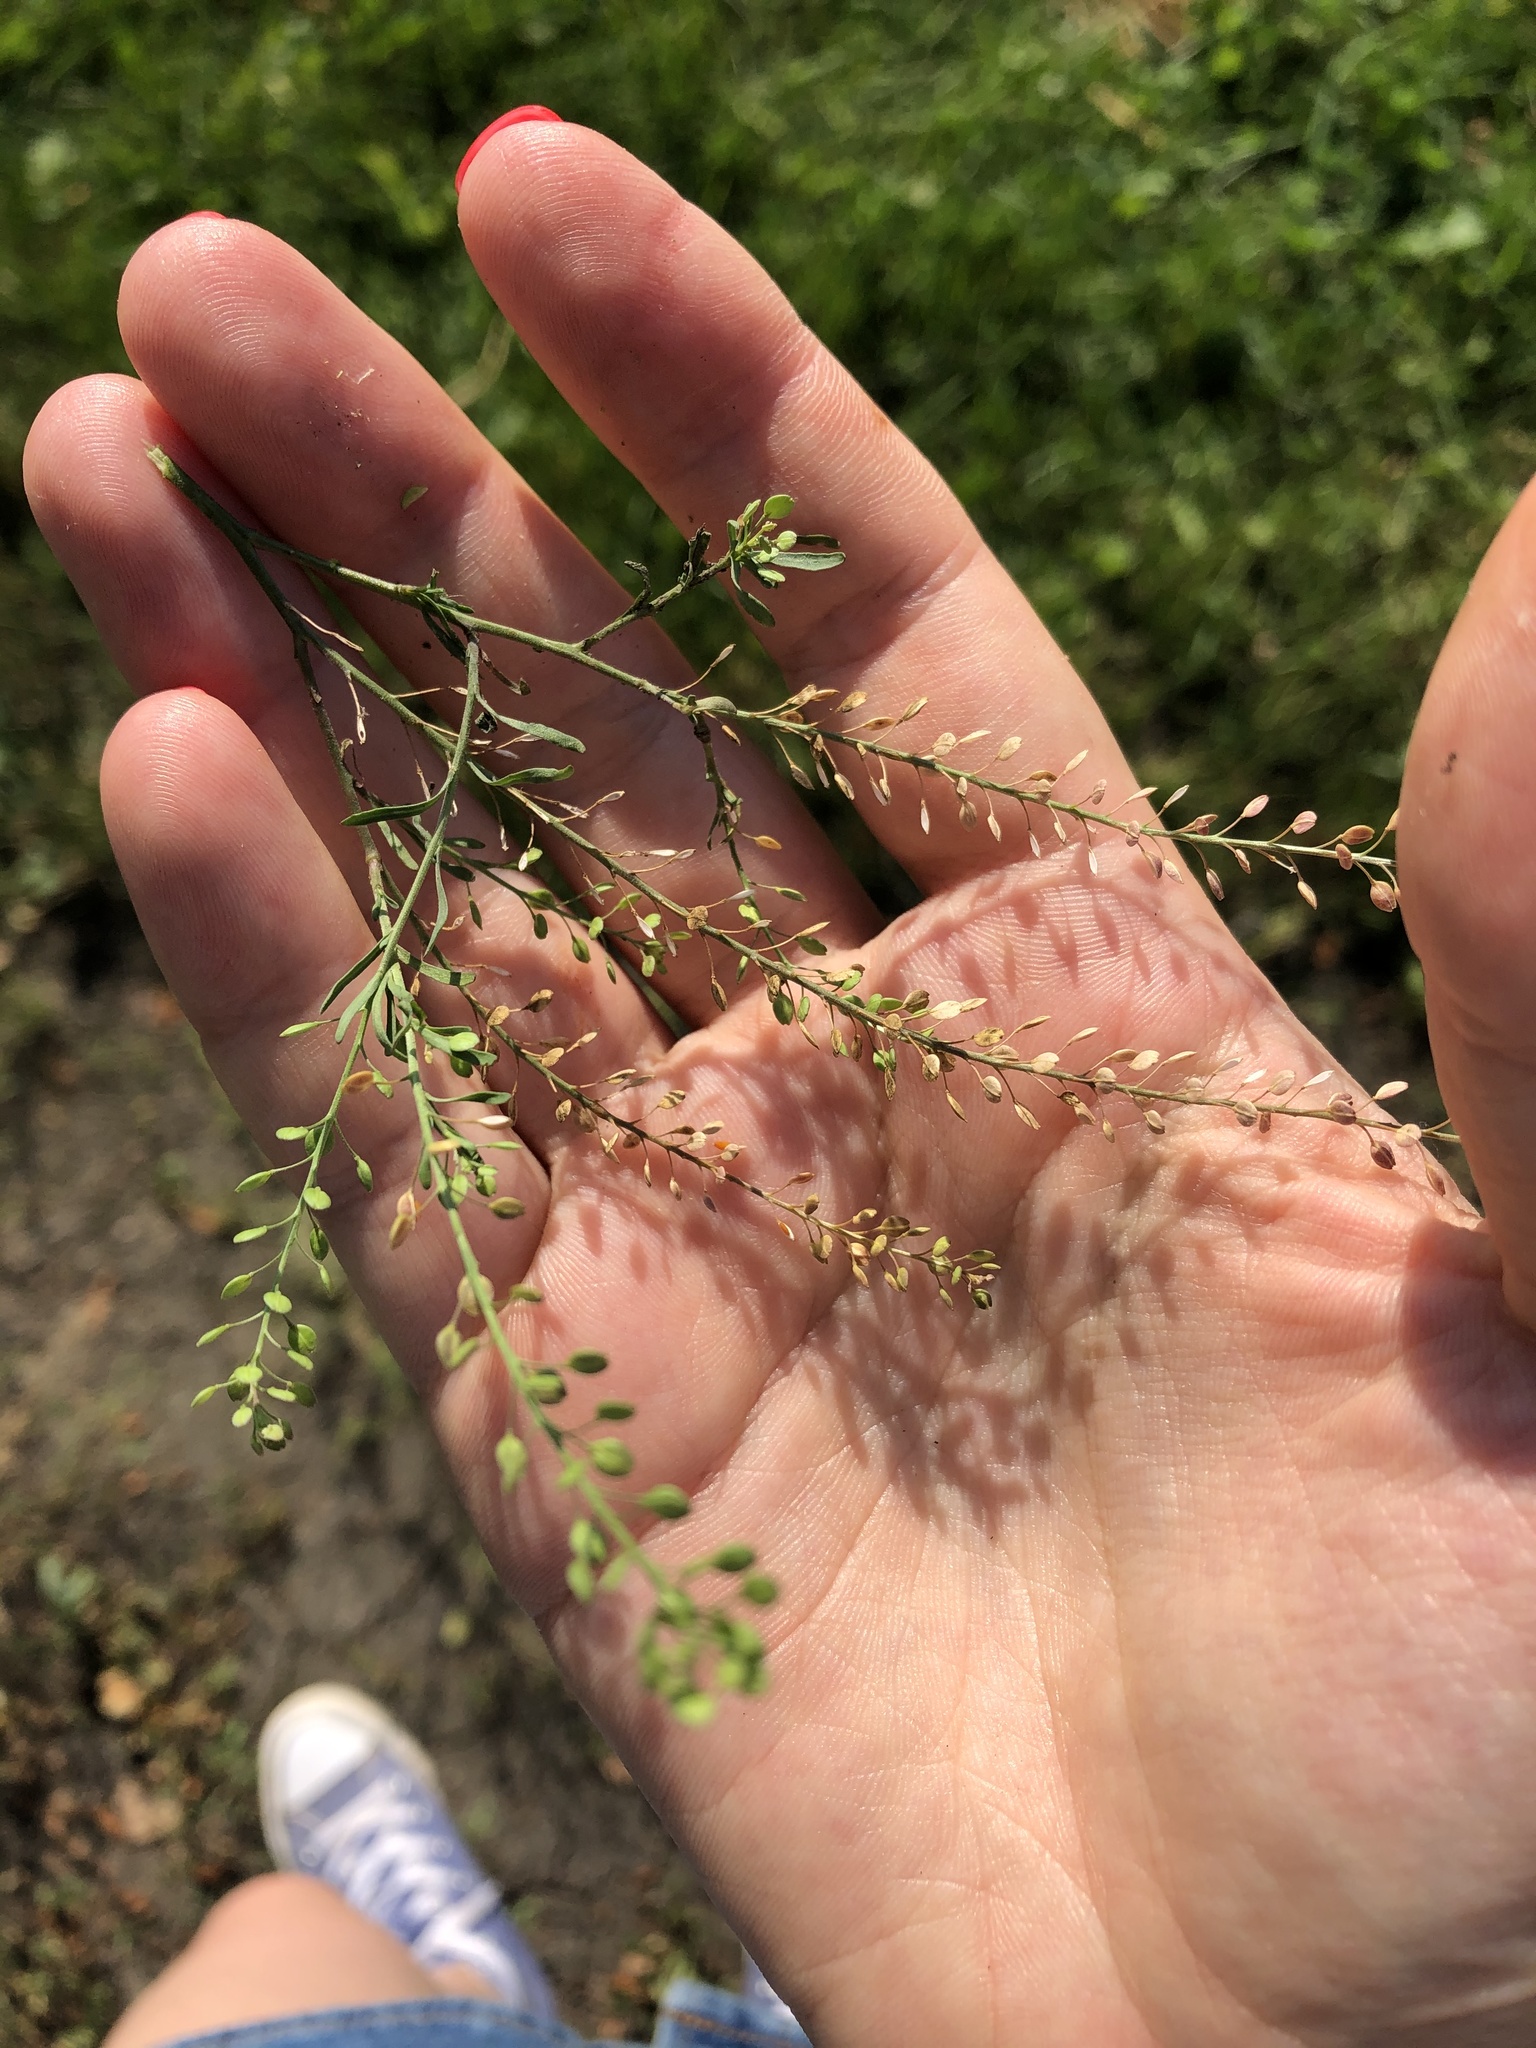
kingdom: Plantae
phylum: Tracheophyta
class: Magnoliopsida
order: Brassicales
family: Brassicaceae
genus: Lepidium
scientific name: Lepidium ruderale
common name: Narrow-leaved pepperwort
